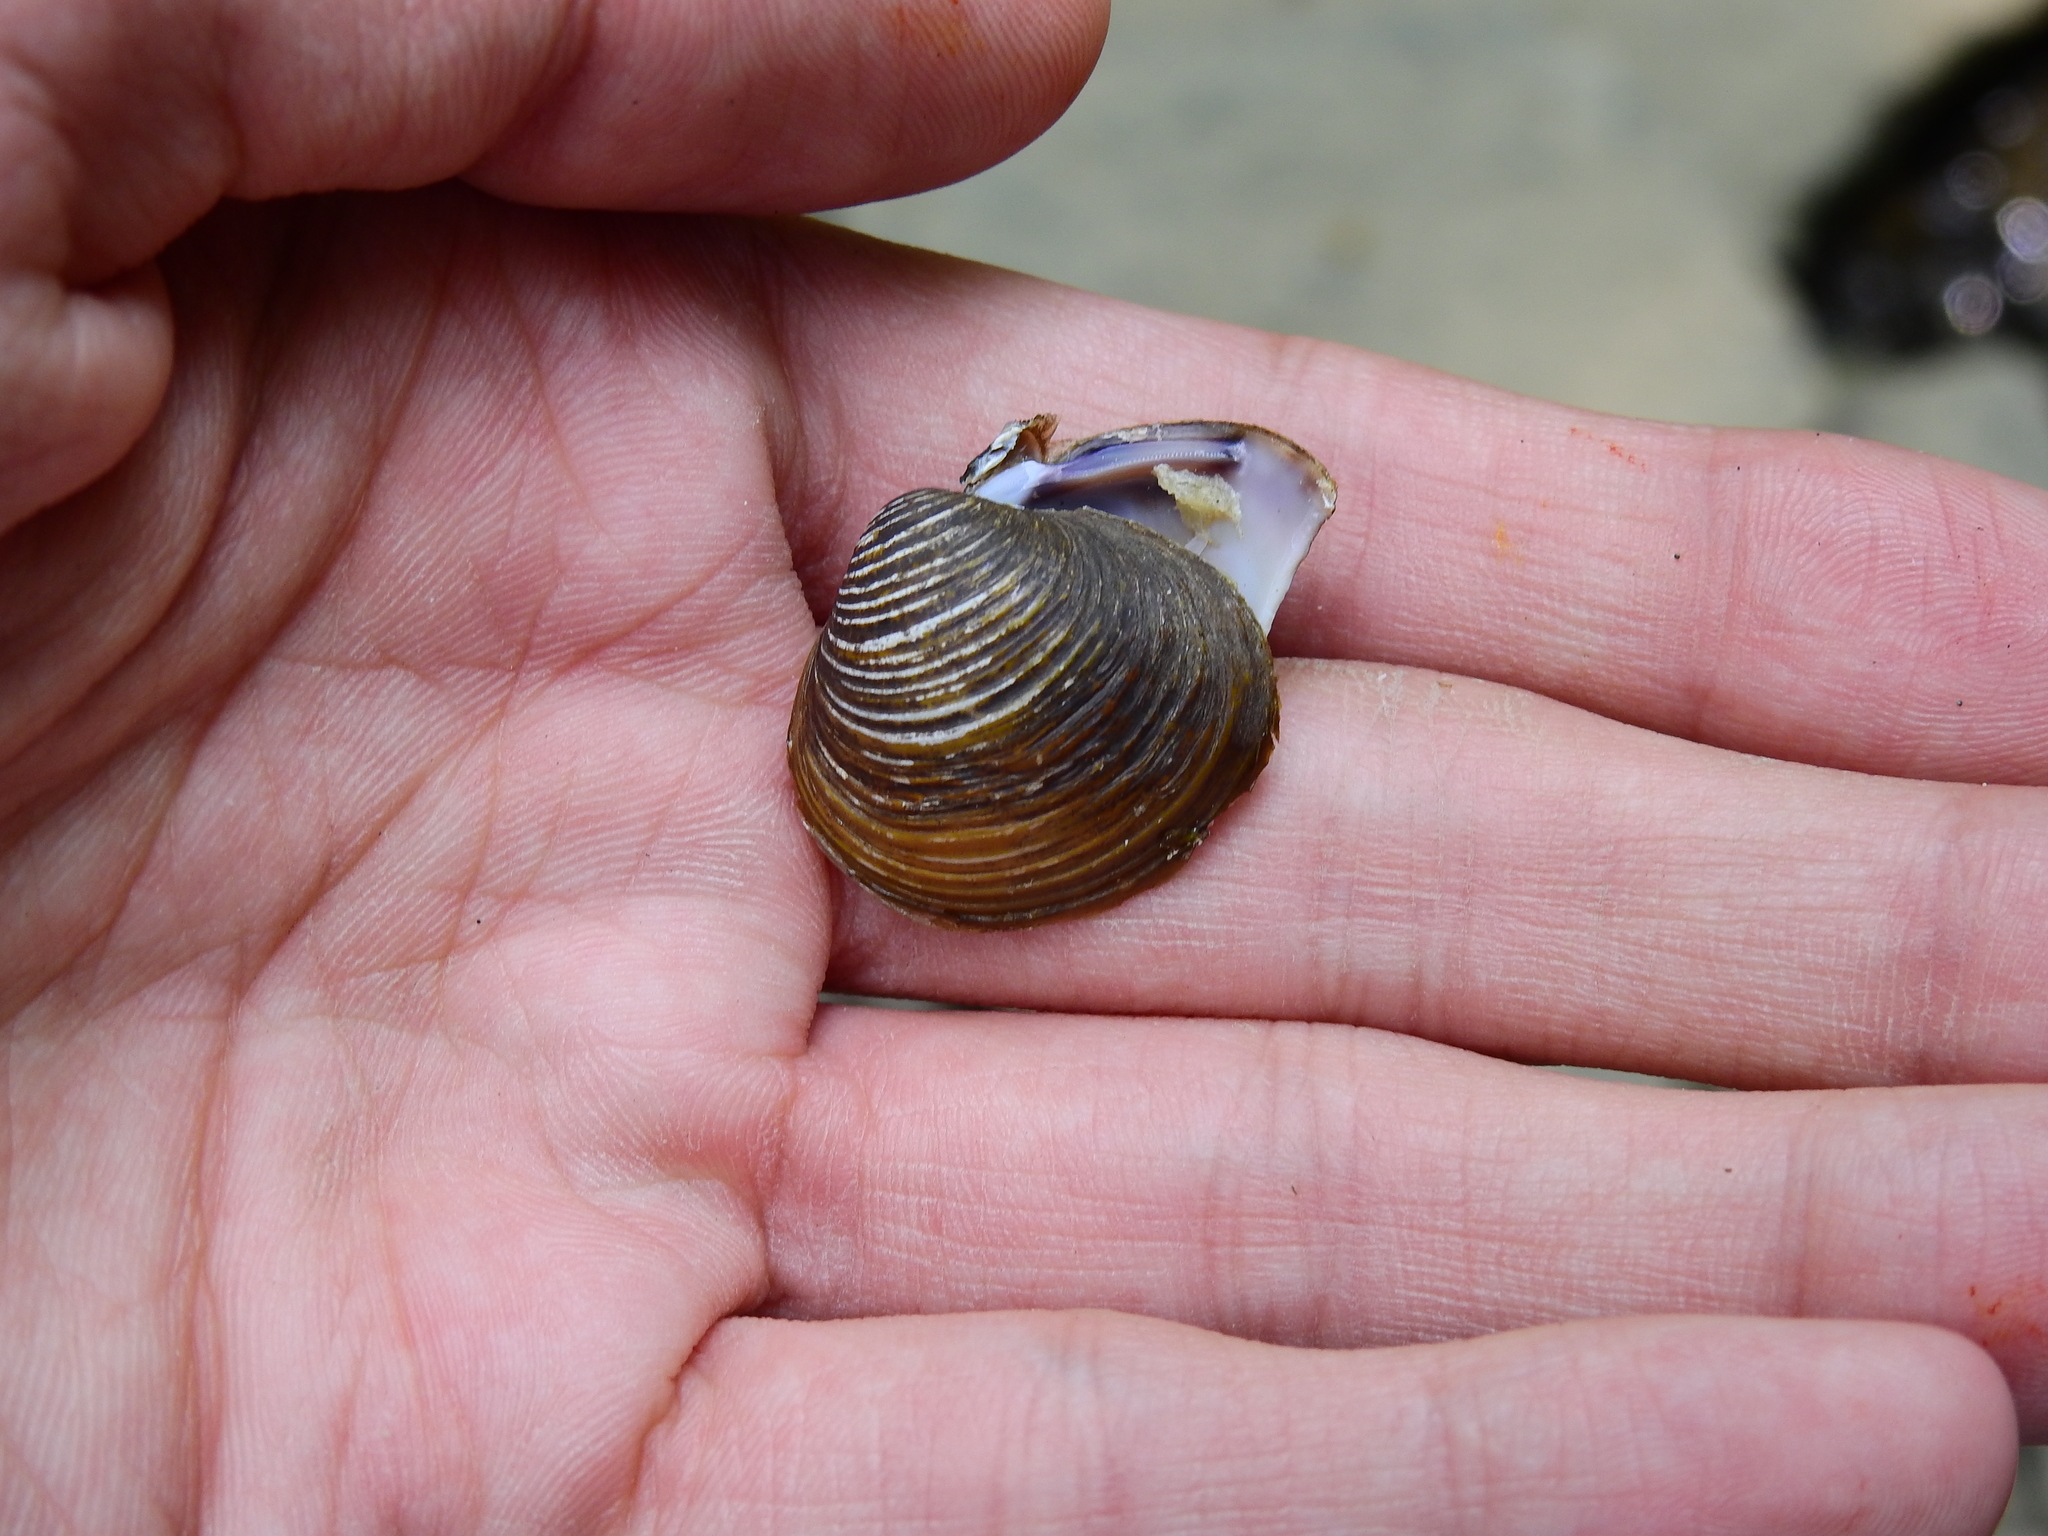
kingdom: Animalia
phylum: Mollusca
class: Bivalvia
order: Venerida
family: Cyrenidae
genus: Corbicula
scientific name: Corbicula fluminea
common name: Asian clam
